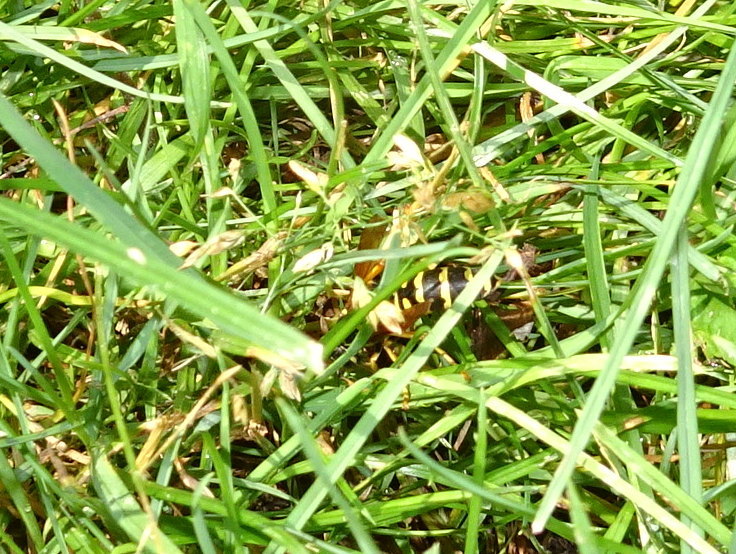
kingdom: Animalia
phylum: Arthropoda
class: Insecta
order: Hymenoptera
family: Eumenidae
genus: Polistes
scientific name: Polistes dominula
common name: Paper wasp
